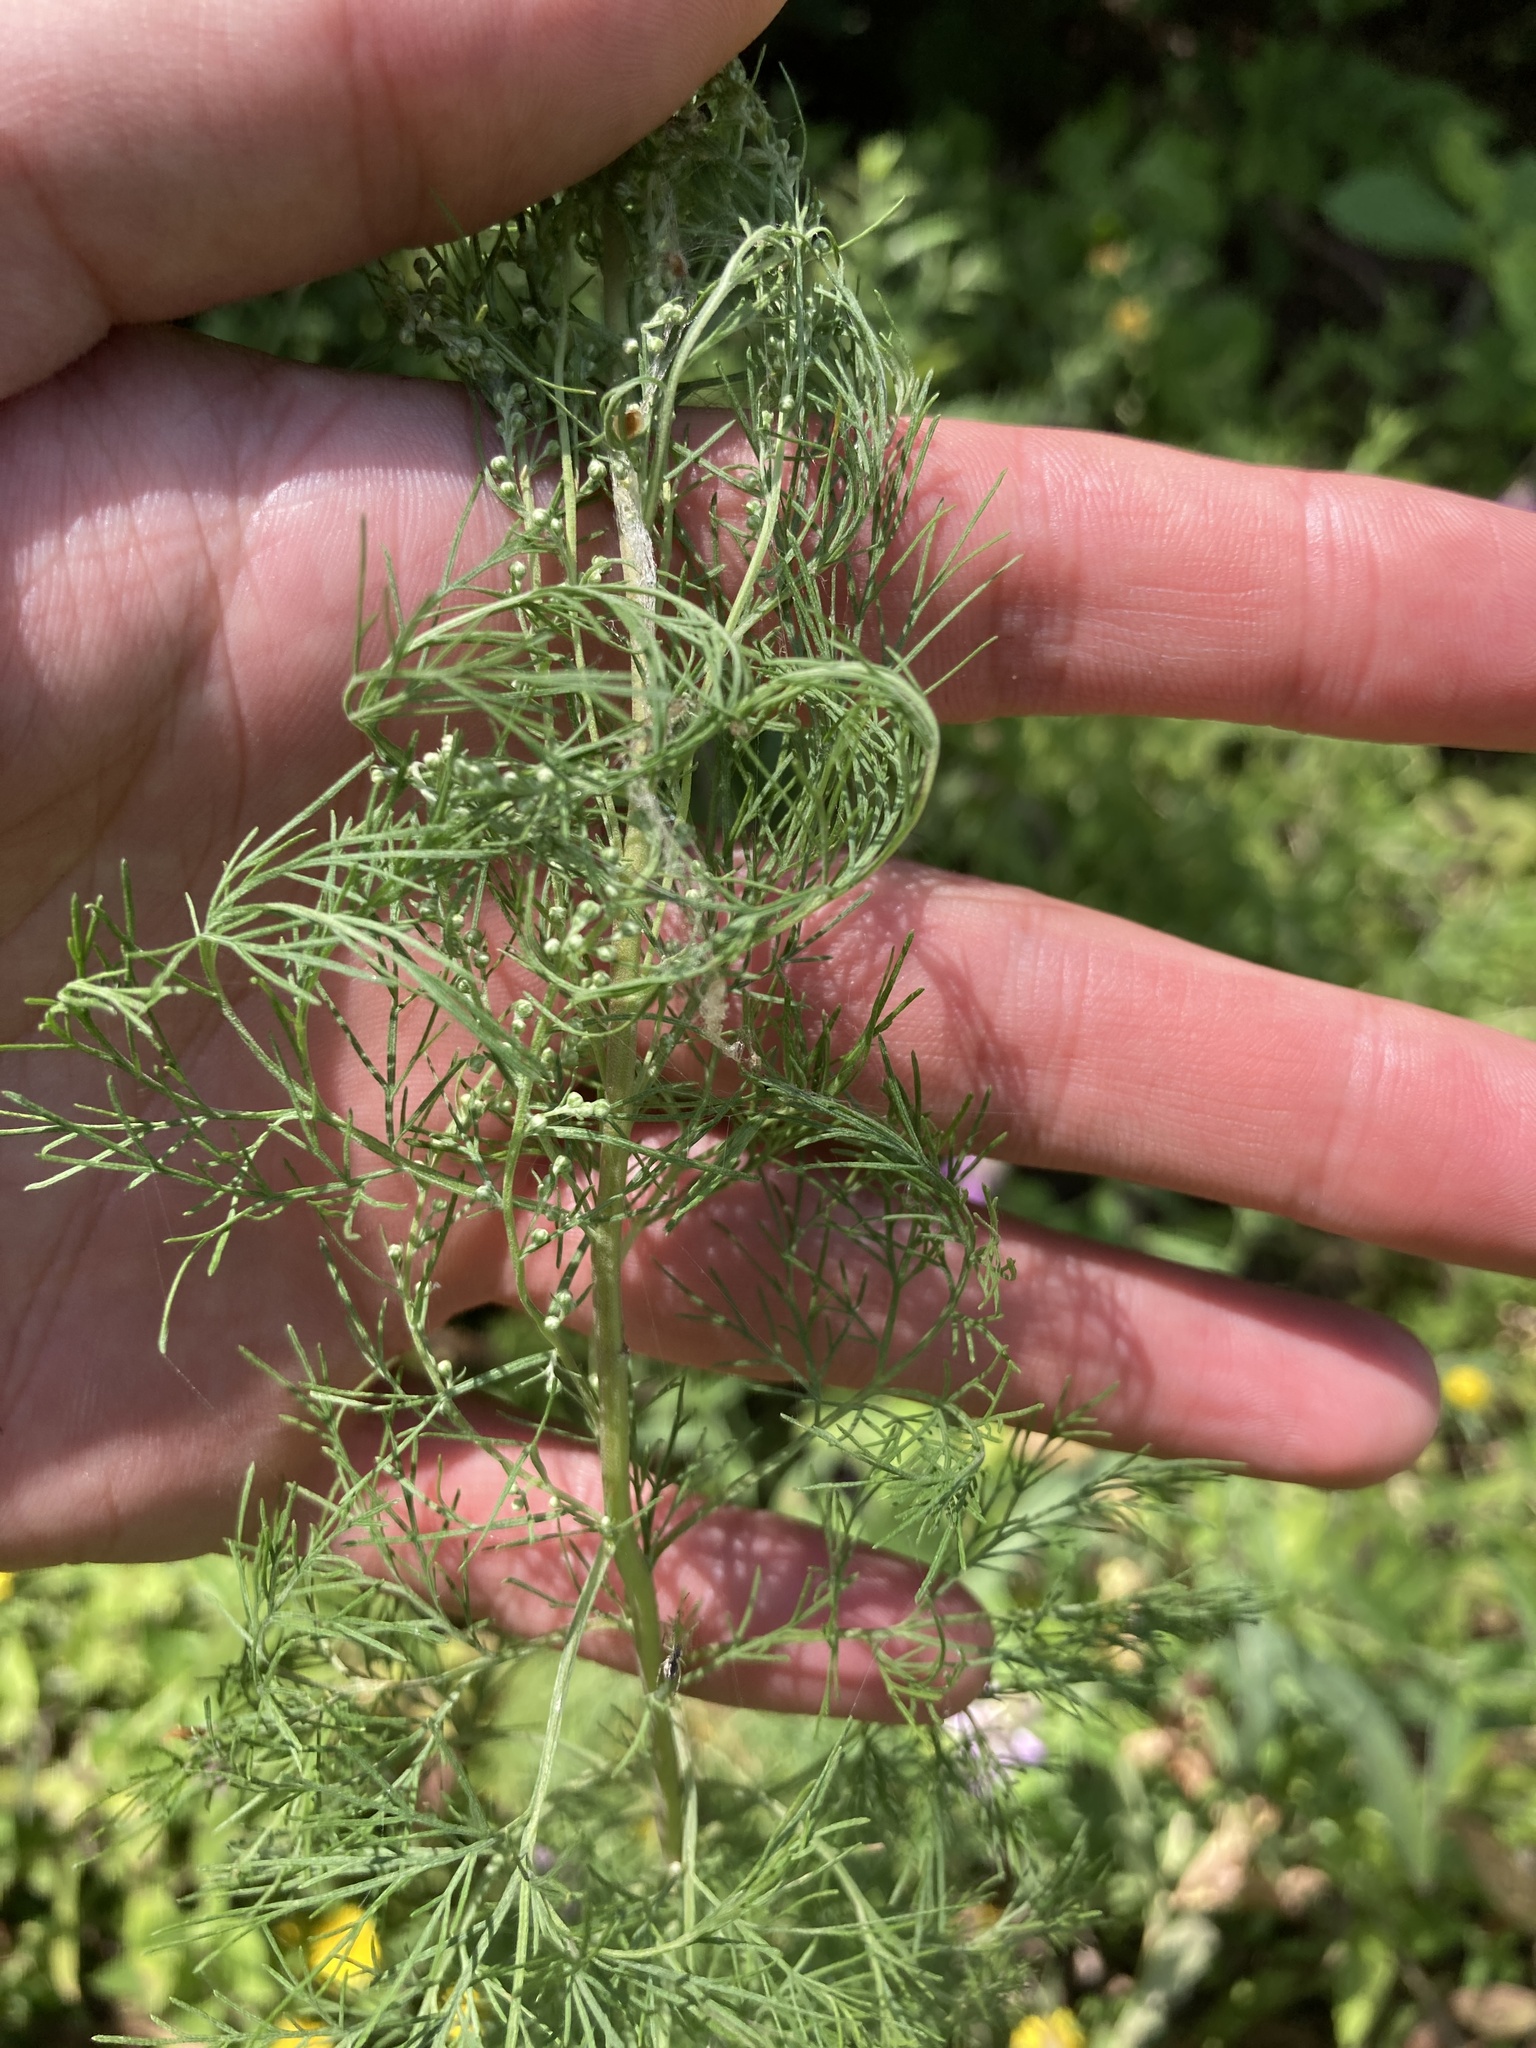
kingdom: Plantae
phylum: Tracheophyta
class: Magnoliopsida
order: Asterales
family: Asteraceae
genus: Artemisia
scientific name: Artemisia abrotanum
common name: Southernwood
